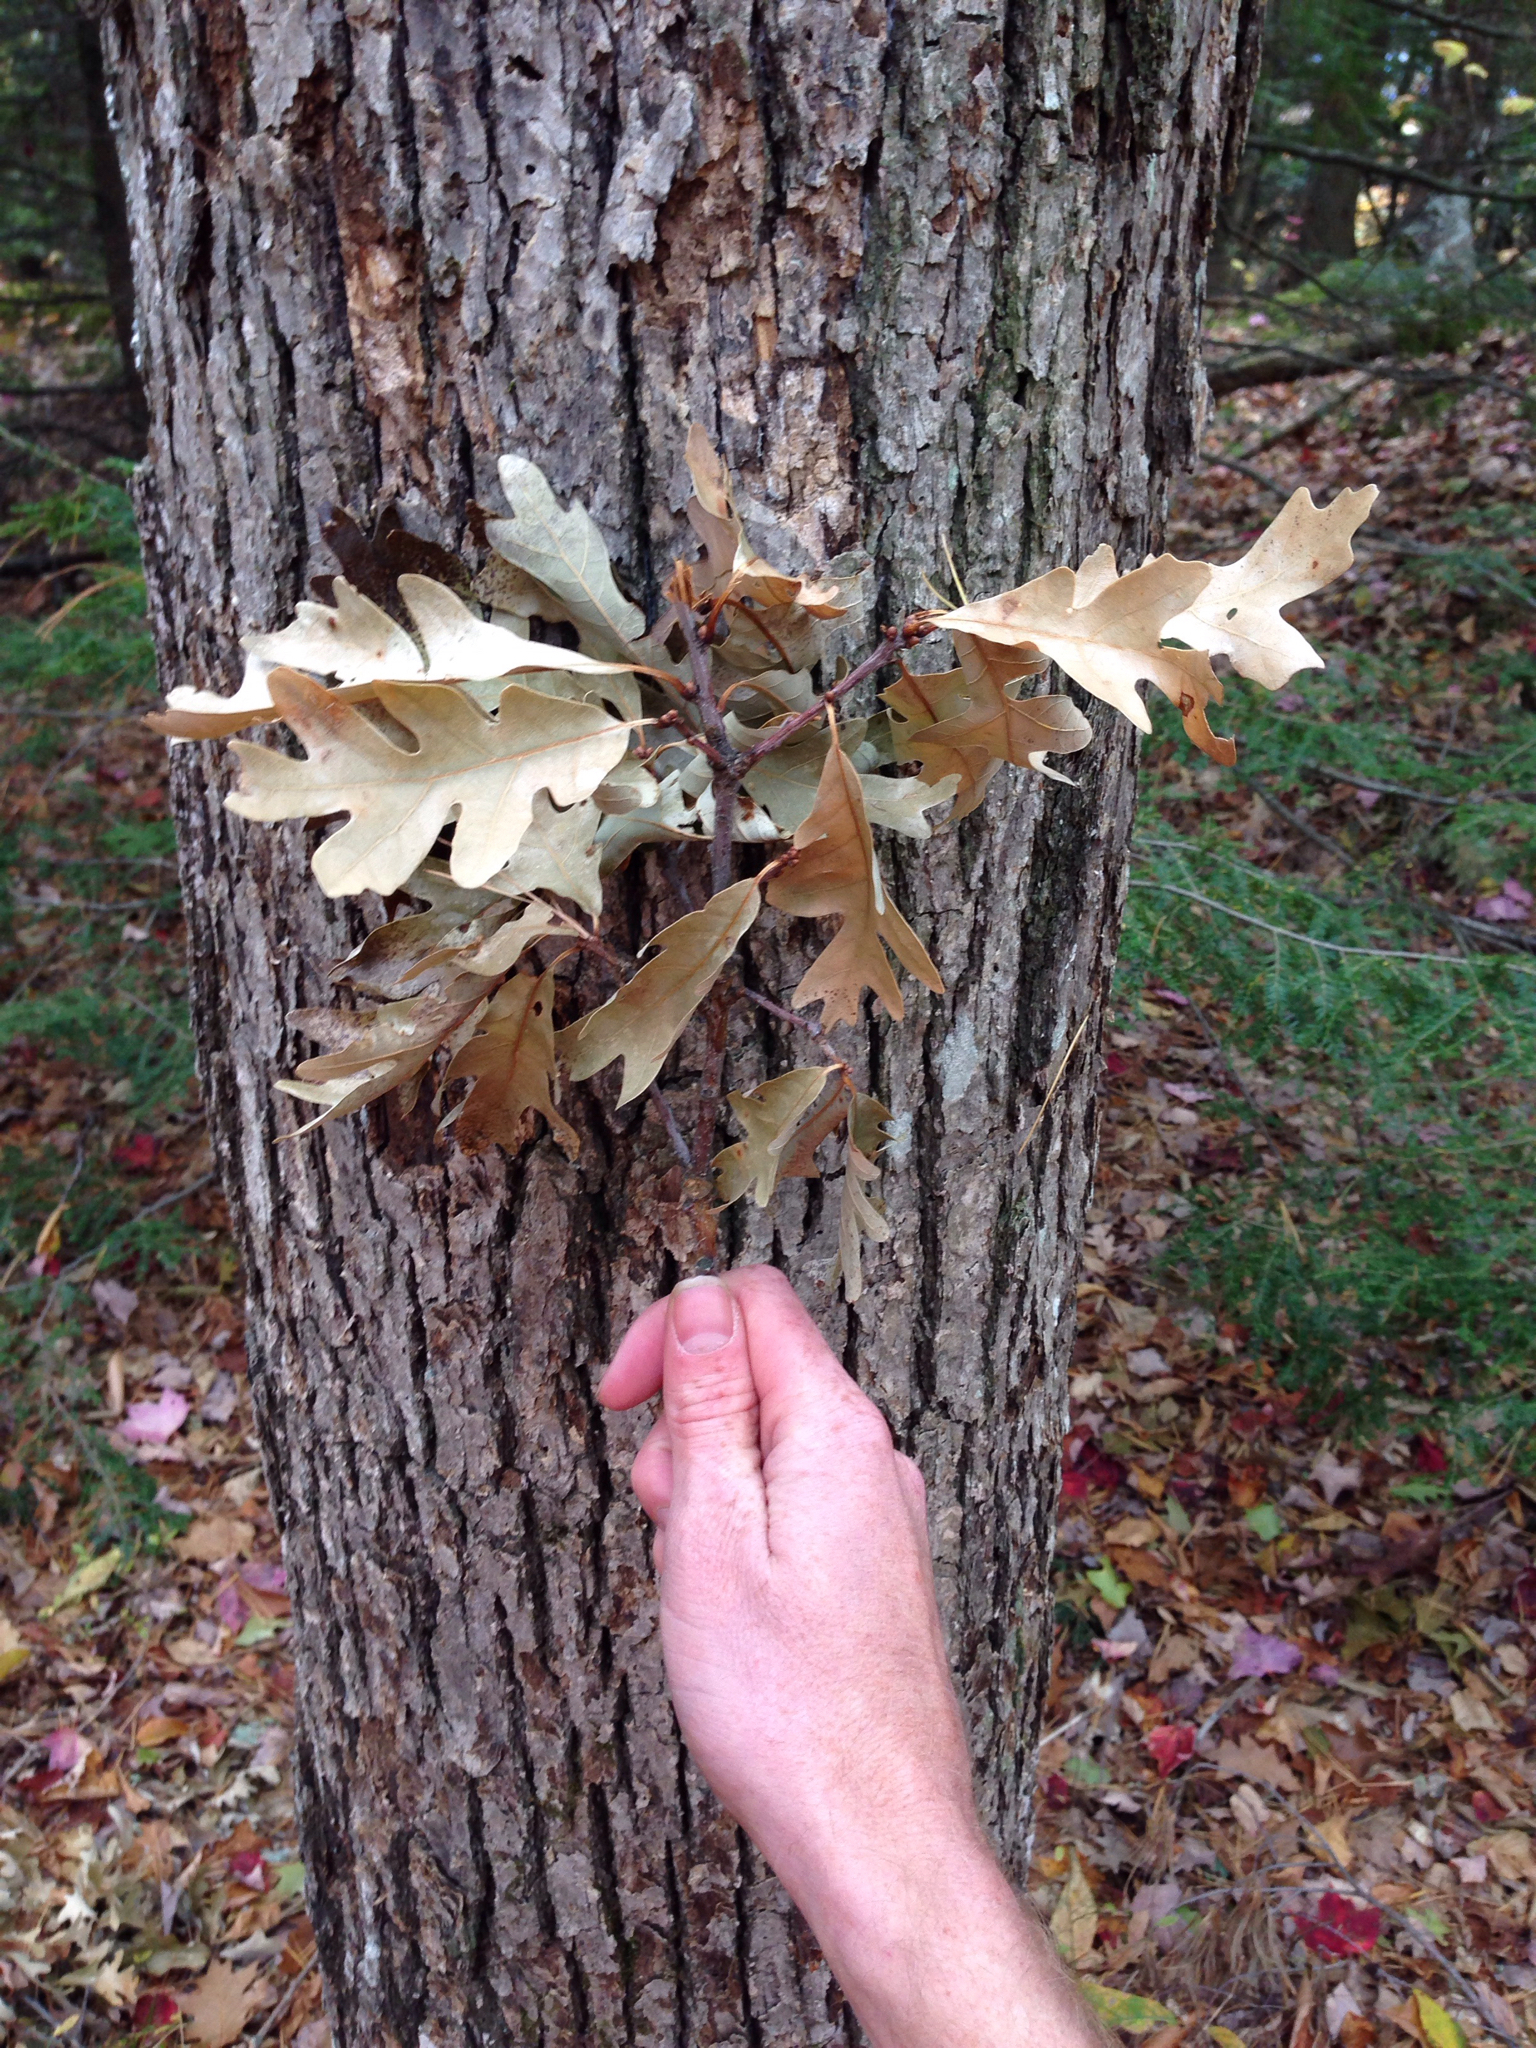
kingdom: Plantae
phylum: Tracheophyta
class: Magnoliopsida
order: Fagales
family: Fagaceae
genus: Quercus
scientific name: Quercus alba
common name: White oak
